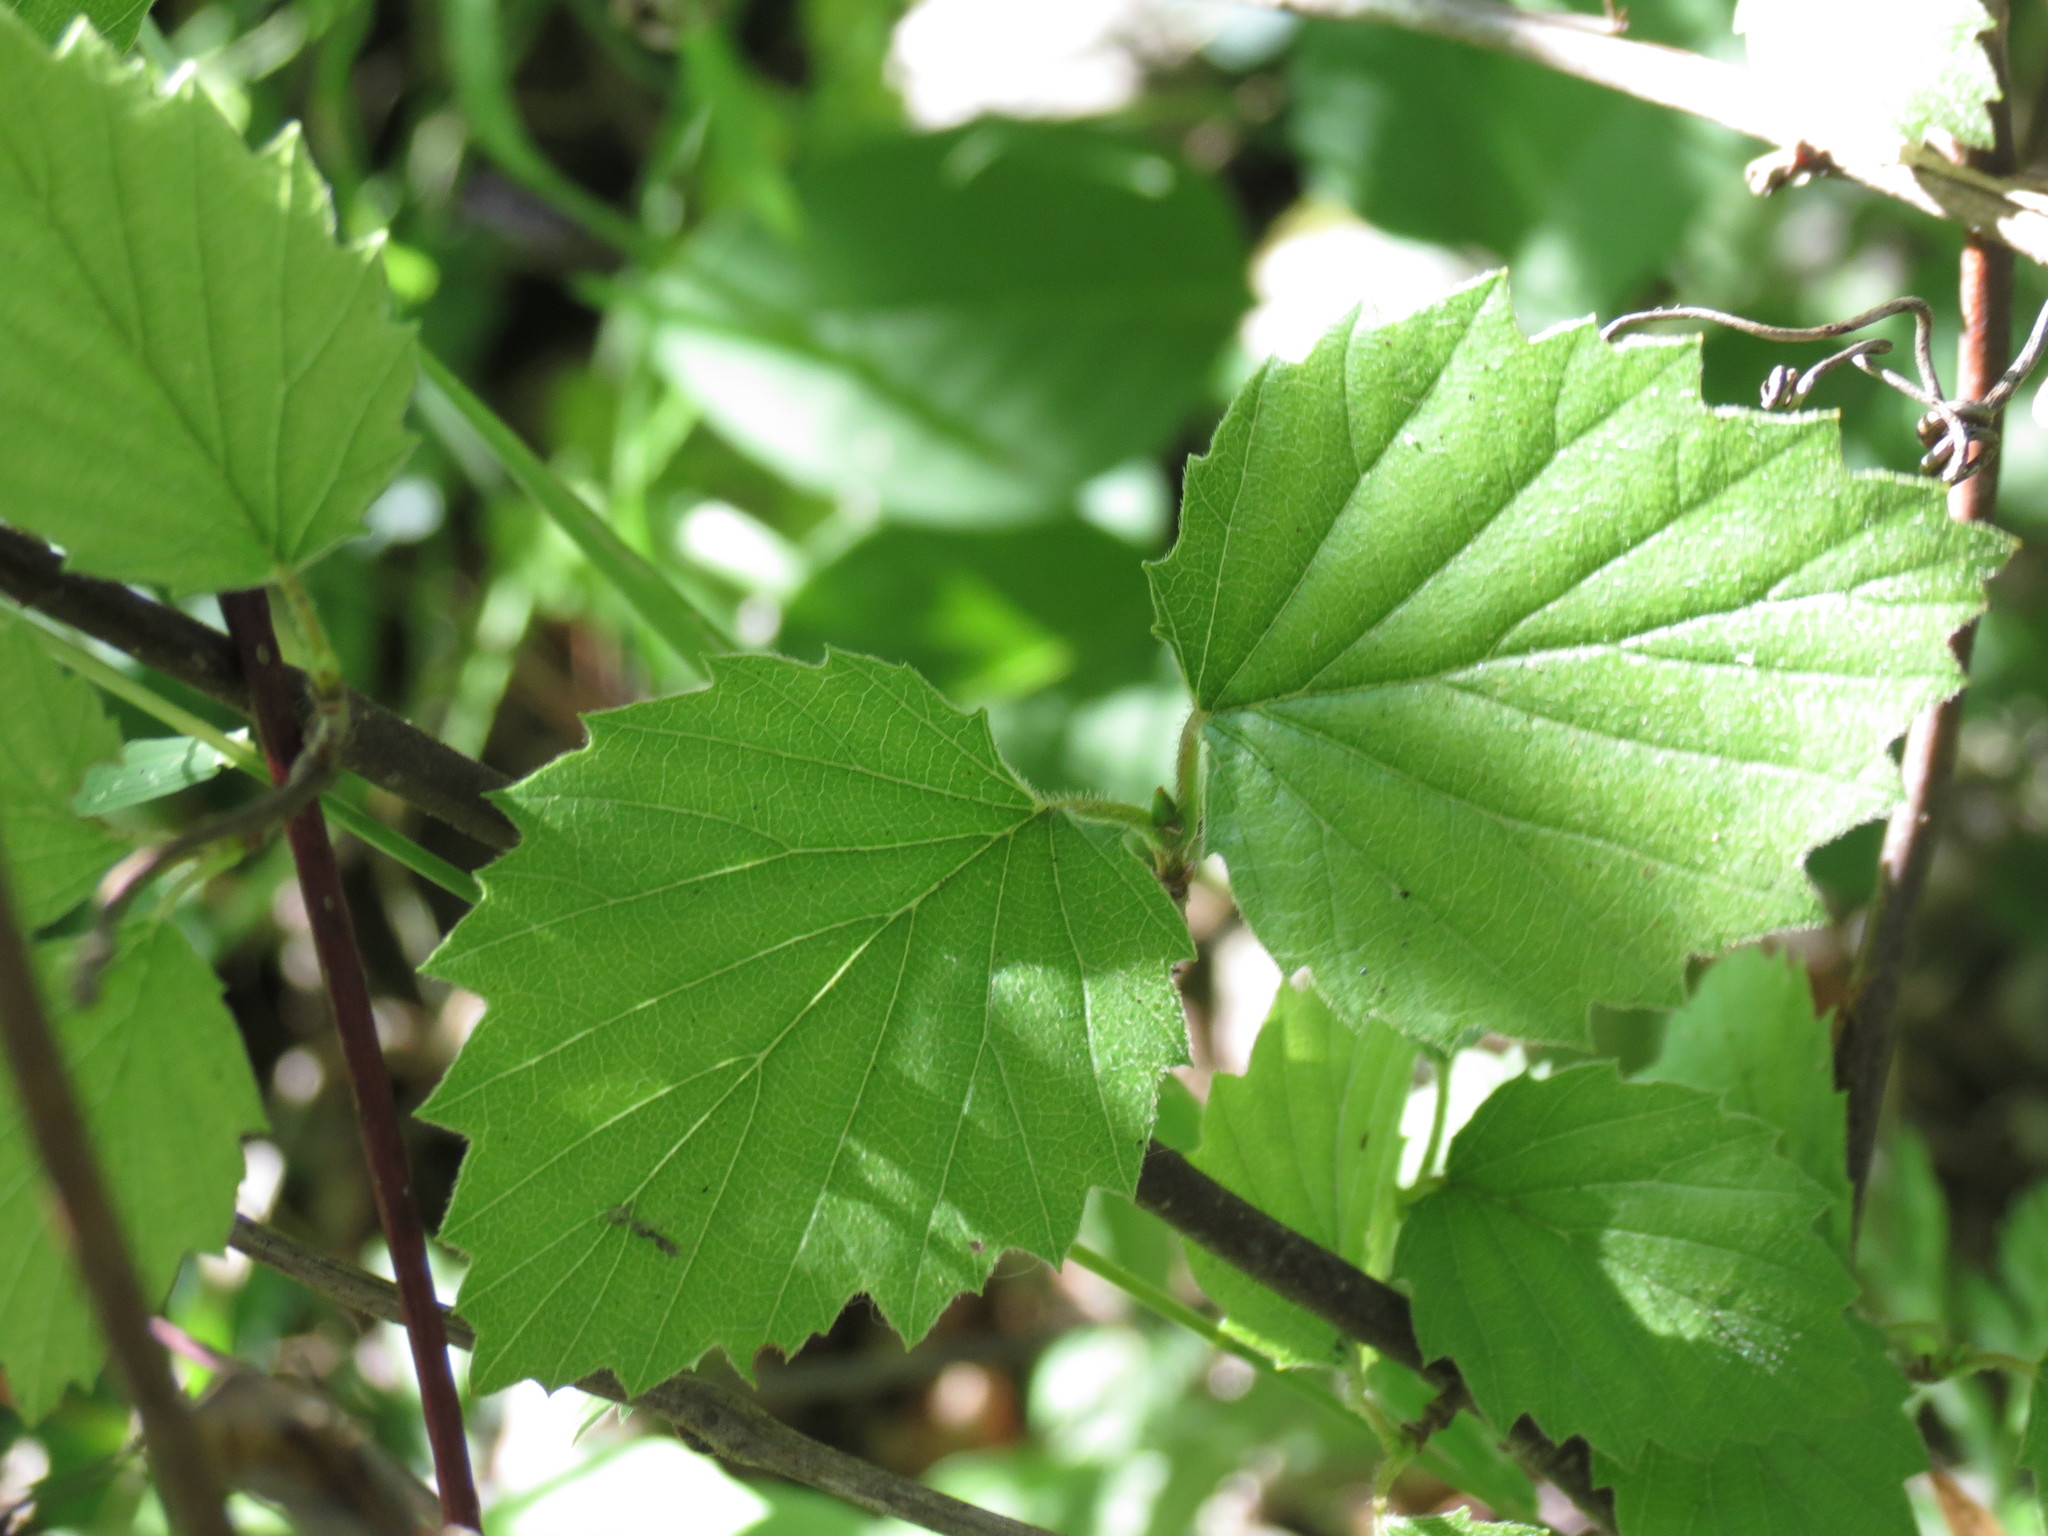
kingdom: Plantae
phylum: Tracheophyta
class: Magnoliopsida
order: Dipsacales
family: Viburnaceae
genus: Viburnum
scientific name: Viburnum rafinesqueanum
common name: Downy arrow-wood
